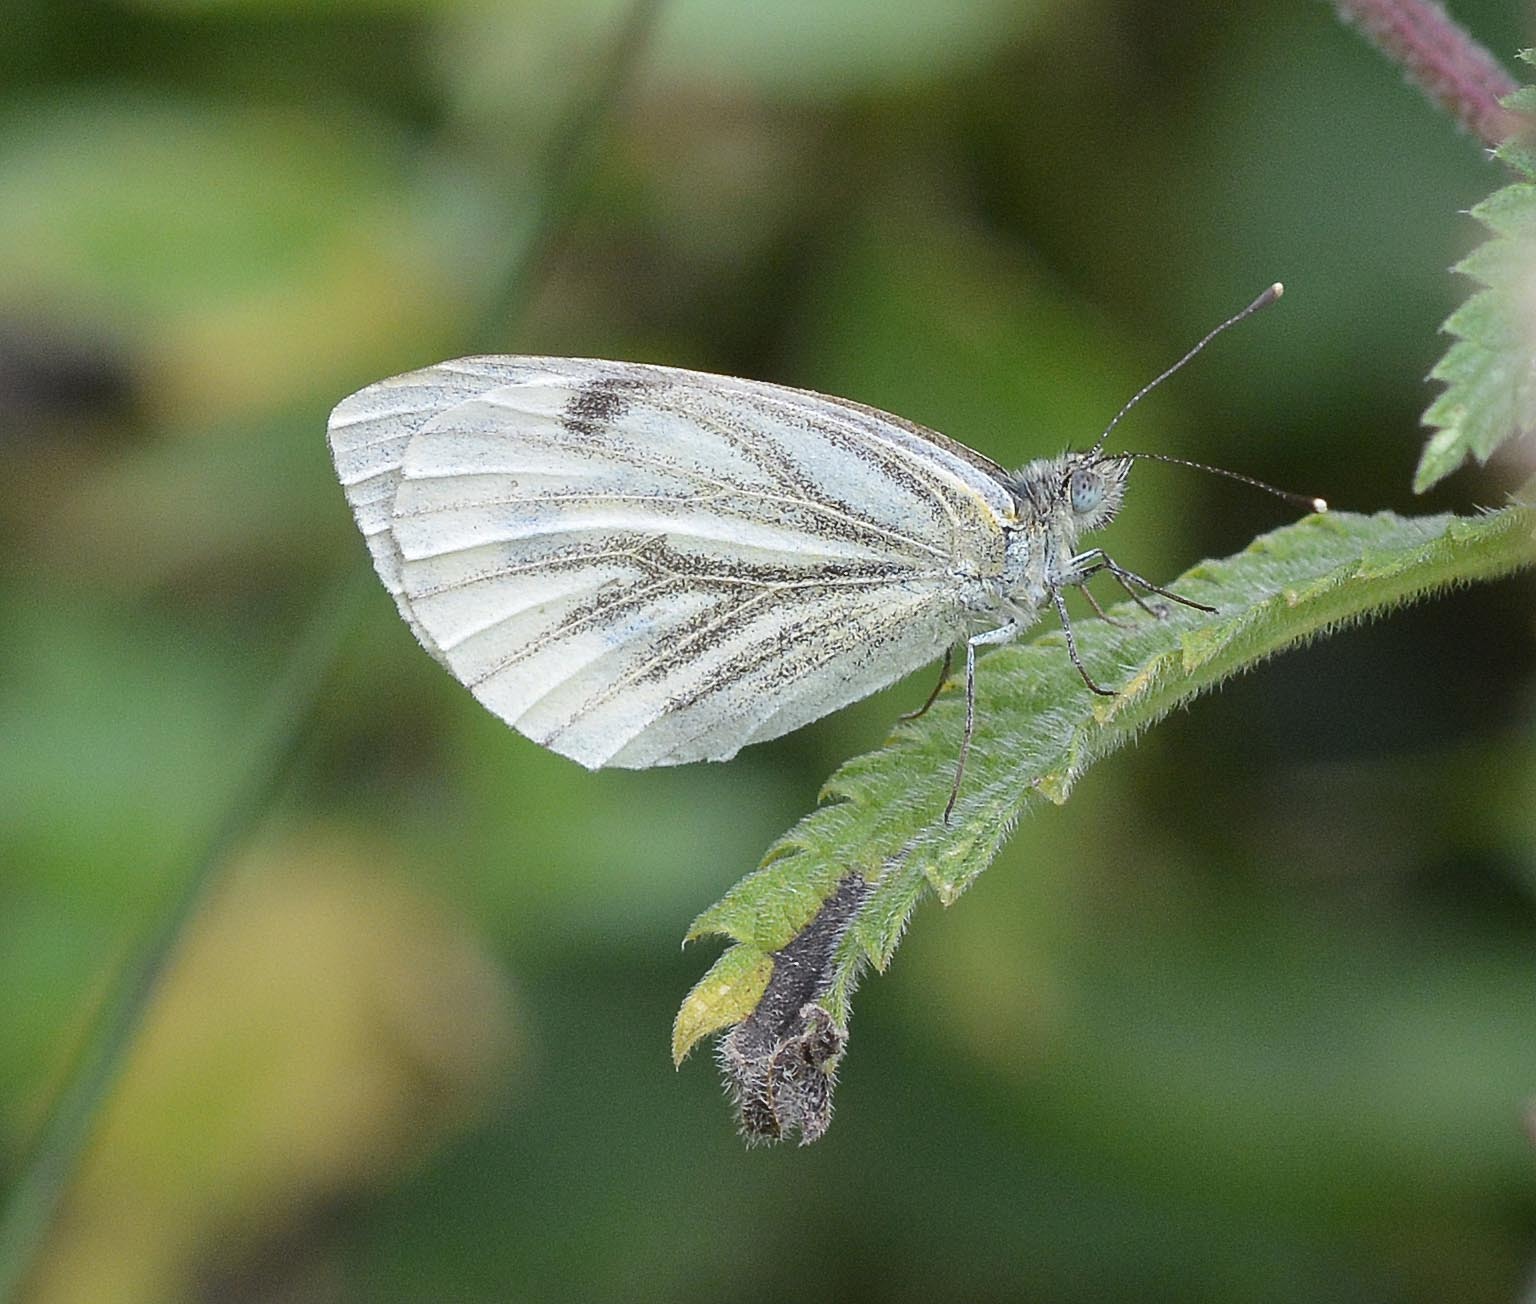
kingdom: Animalia
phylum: Arthropoda
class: Insecta
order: Lepidoptera
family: Pieridae
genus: Pieris
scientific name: Pieris napi
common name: Green-veined white
